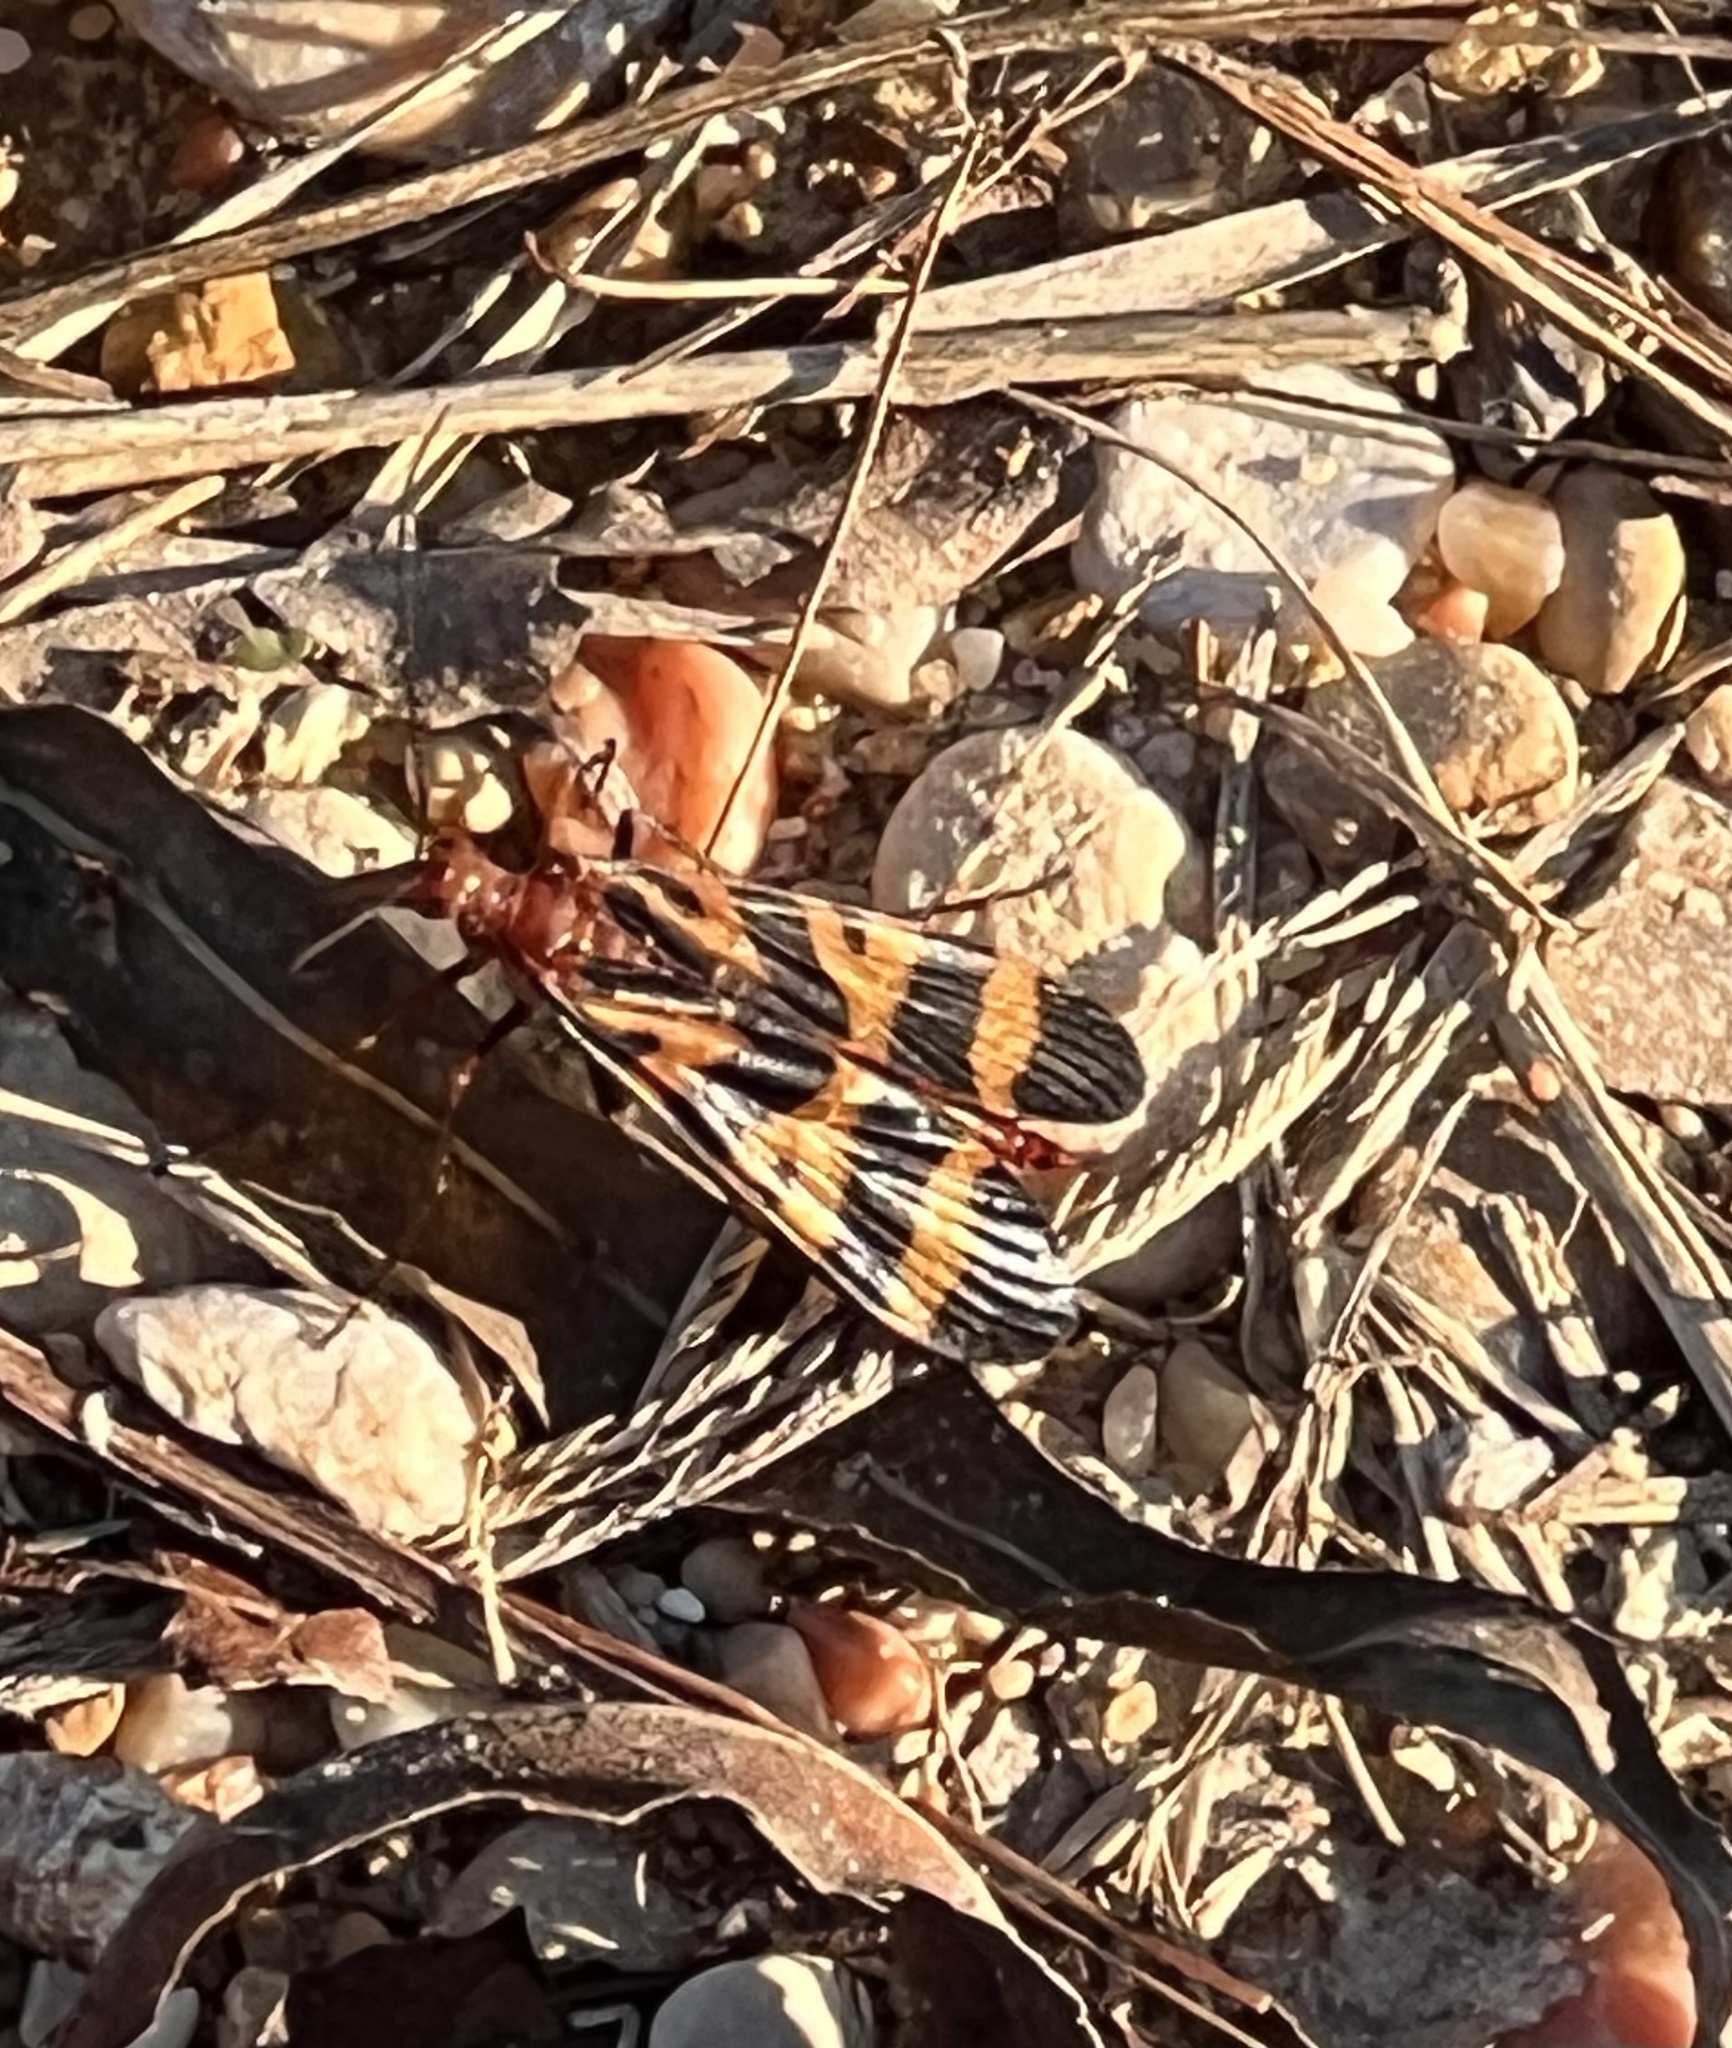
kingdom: Animalia
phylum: Arthropoda
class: Insecta
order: Mecoptera
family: Panorpidae
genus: Panorpa
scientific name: Panorpa nuptialis
